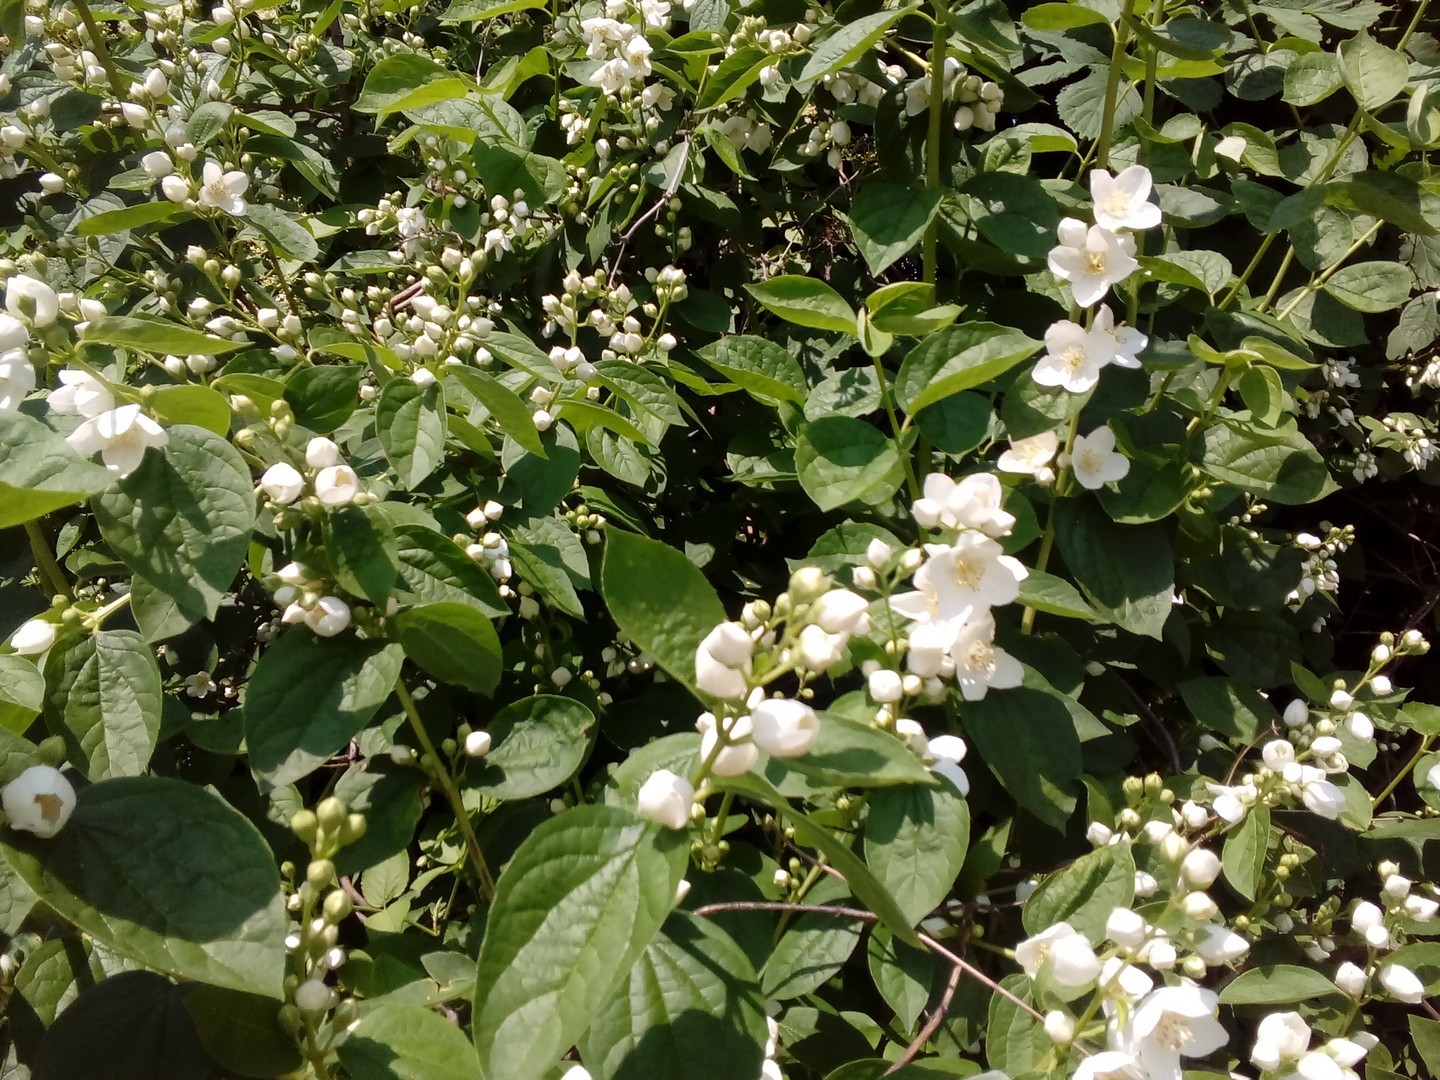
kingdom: Plantae
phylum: Tracheophyta
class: Magnoliopsida
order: Cornales
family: Hydrangeaceae
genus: Philadelphus
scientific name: Philadelphus virginalis
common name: Hairy mock orange
